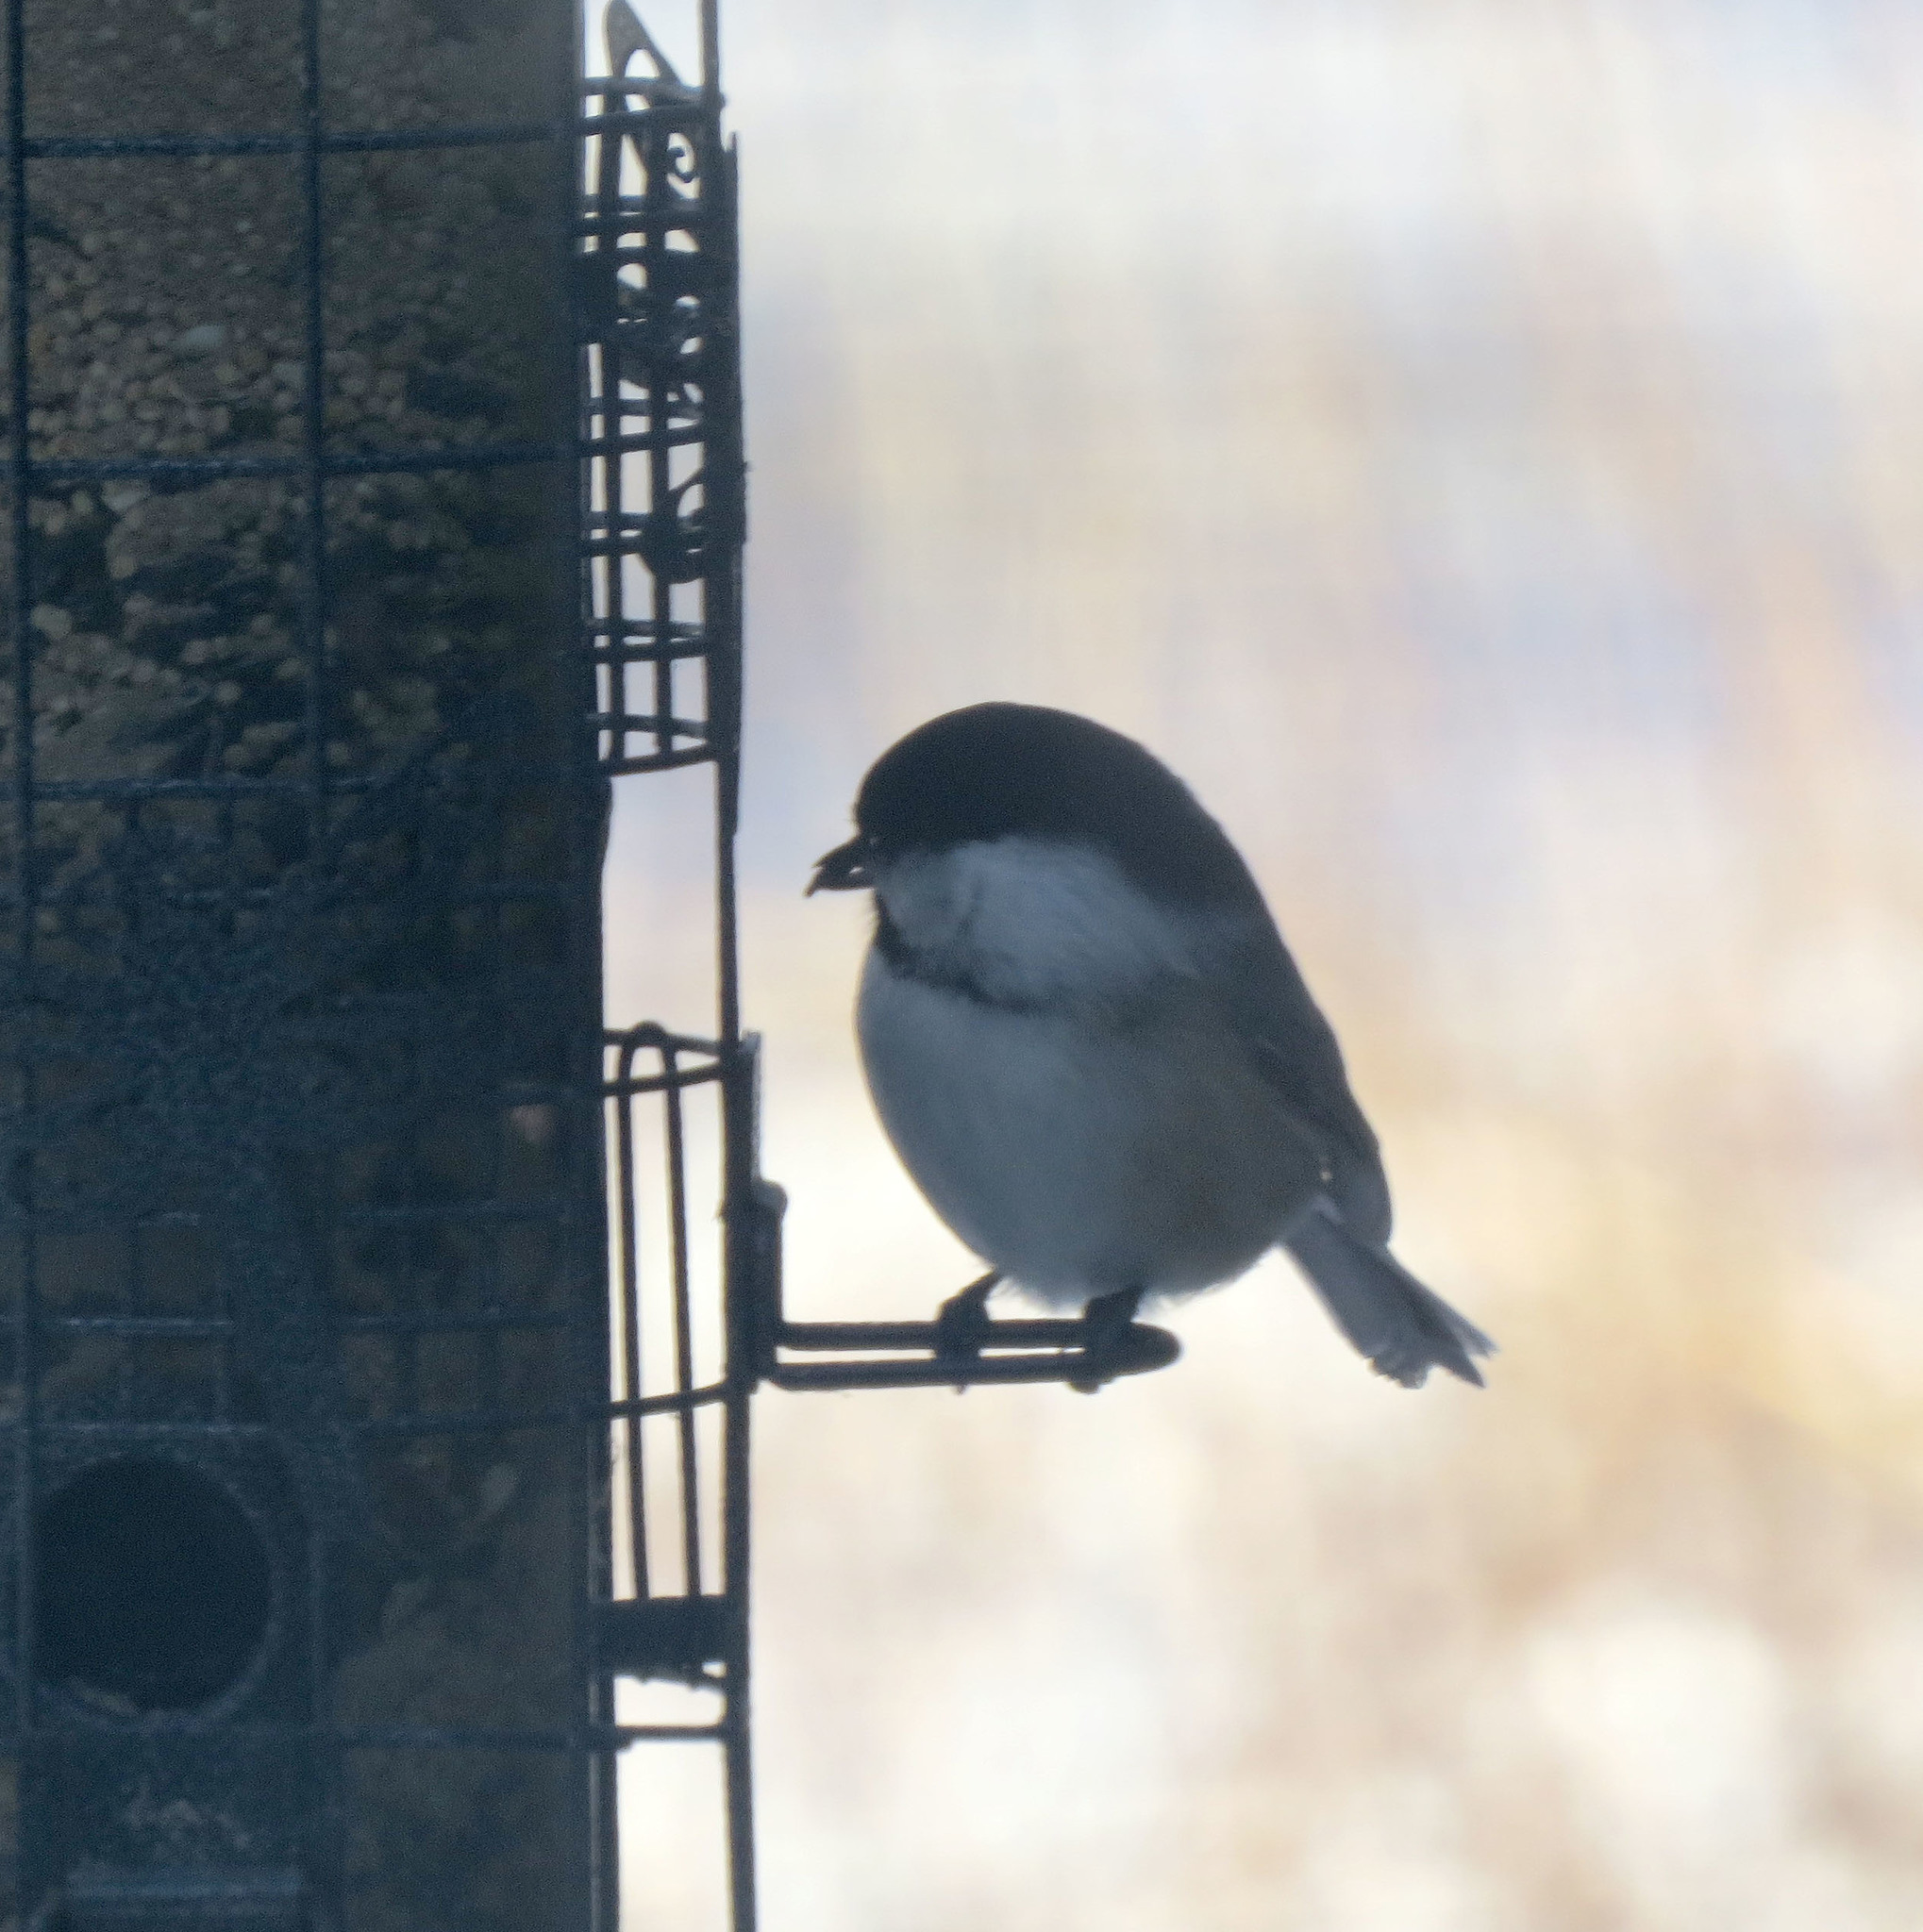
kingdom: Animalia
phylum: Chordata
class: Aves
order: Passeriformes
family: Paridae
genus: Poecile
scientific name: Poecile atricapillus
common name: Black-capped chickadee
